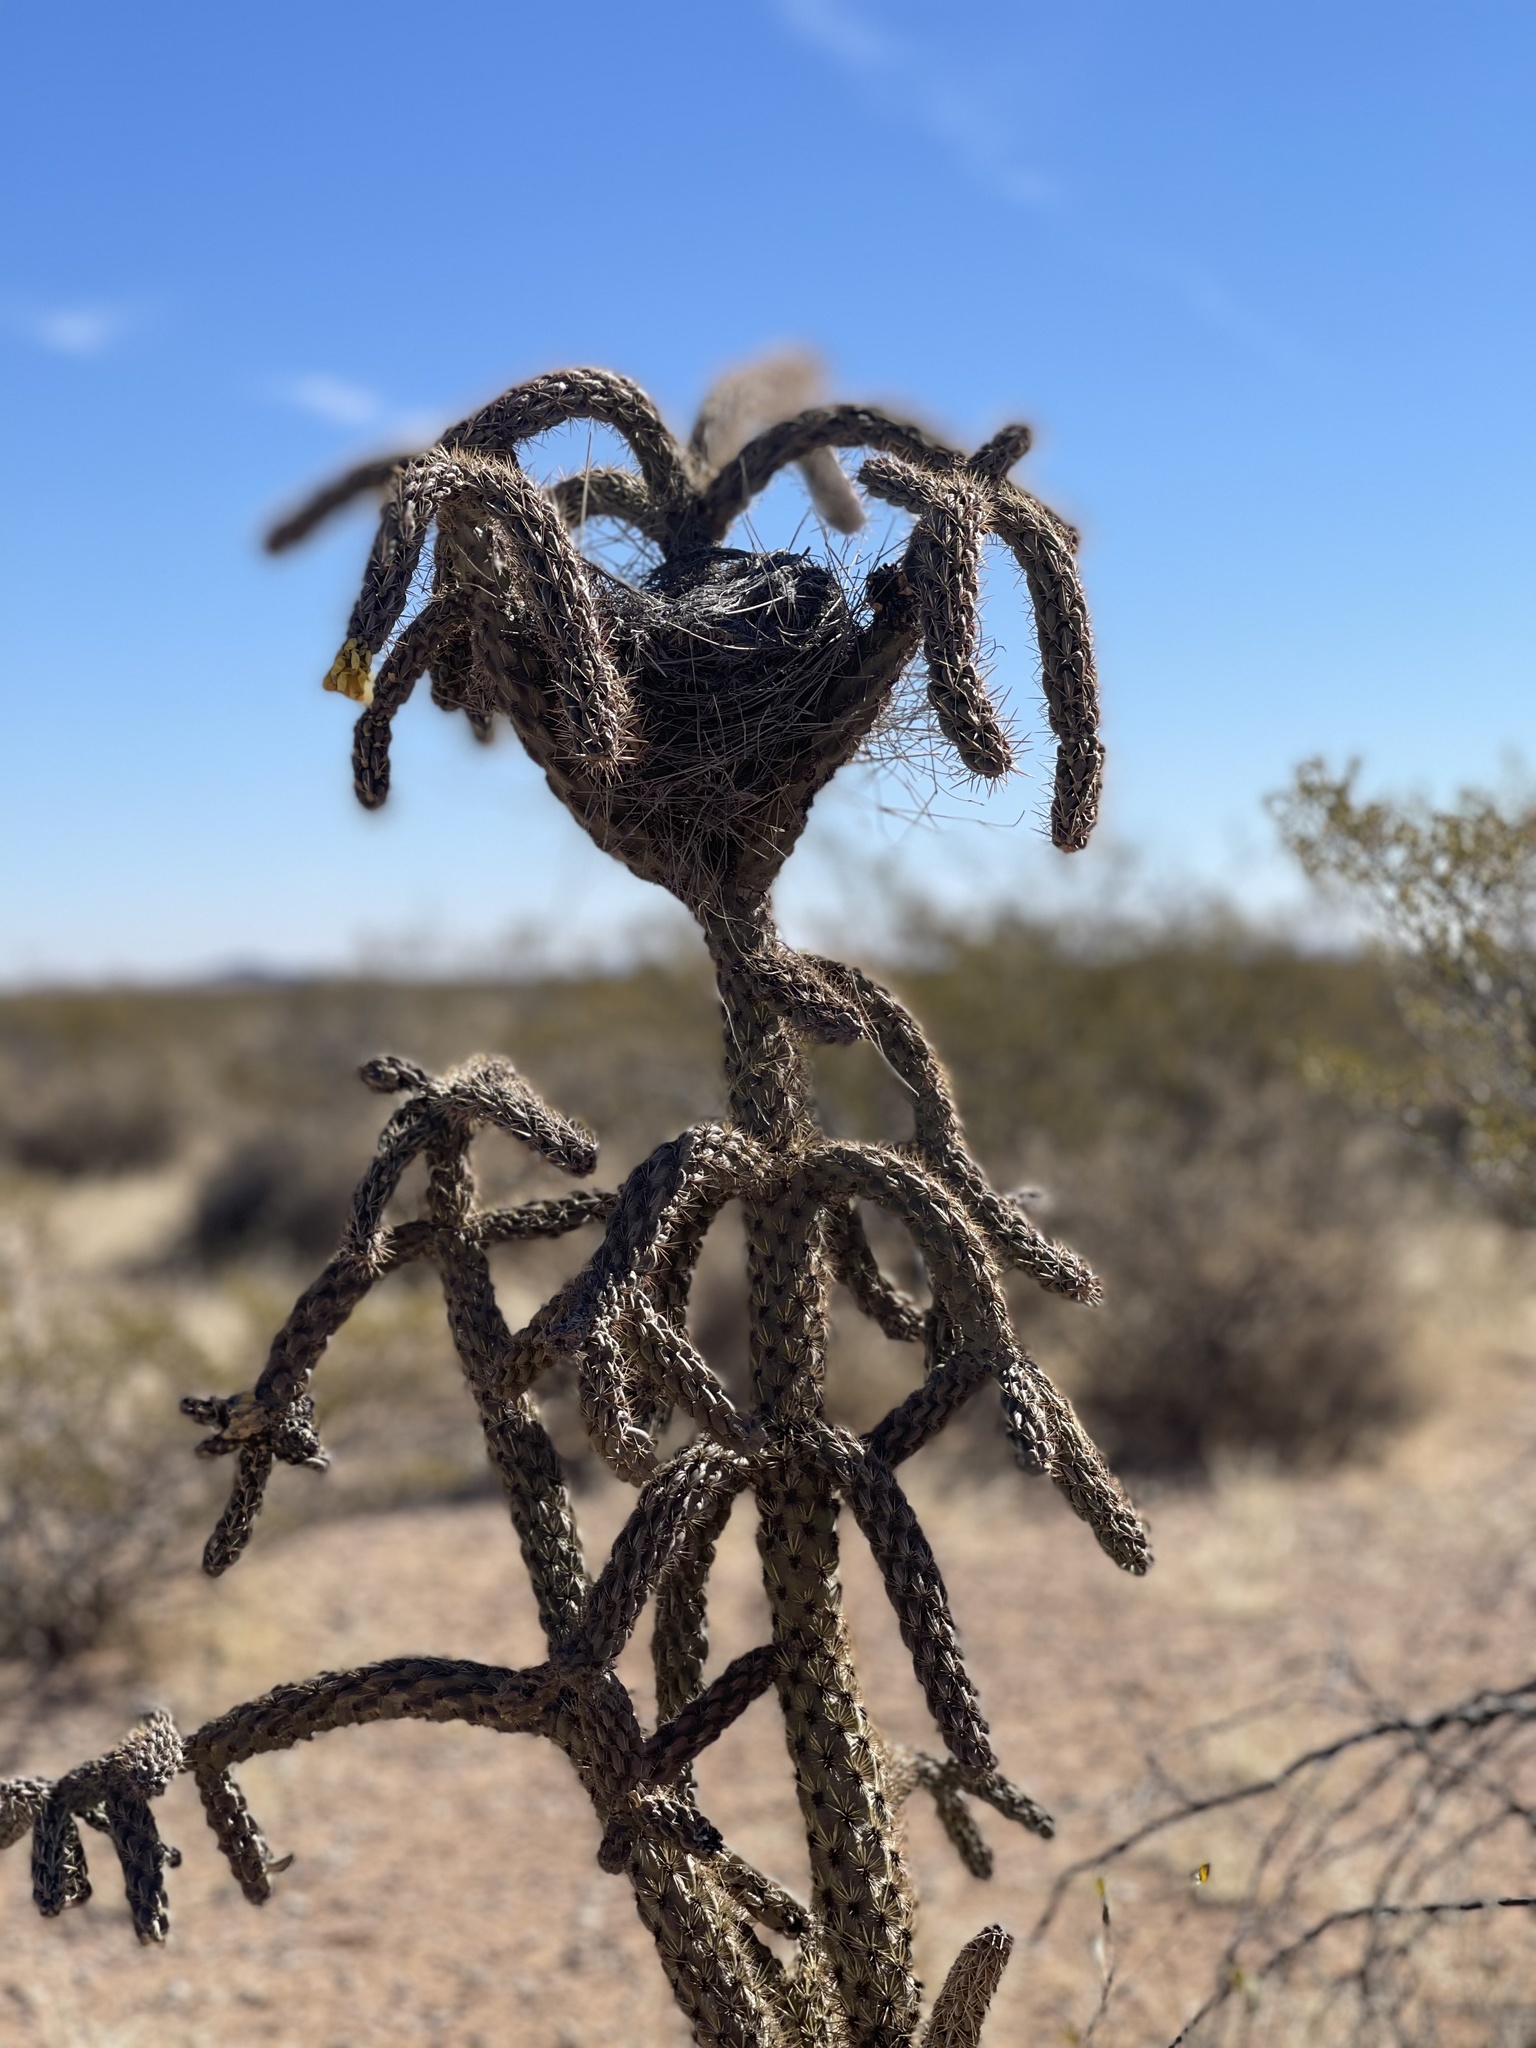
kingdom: Plantae
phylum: Tracheophyta
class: Magnoliopsida
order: Caryophyllales
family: Cactaceae
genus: Cylindropuntia
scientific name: Cylindropuntia imbricata
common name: Candelabrum cactus
